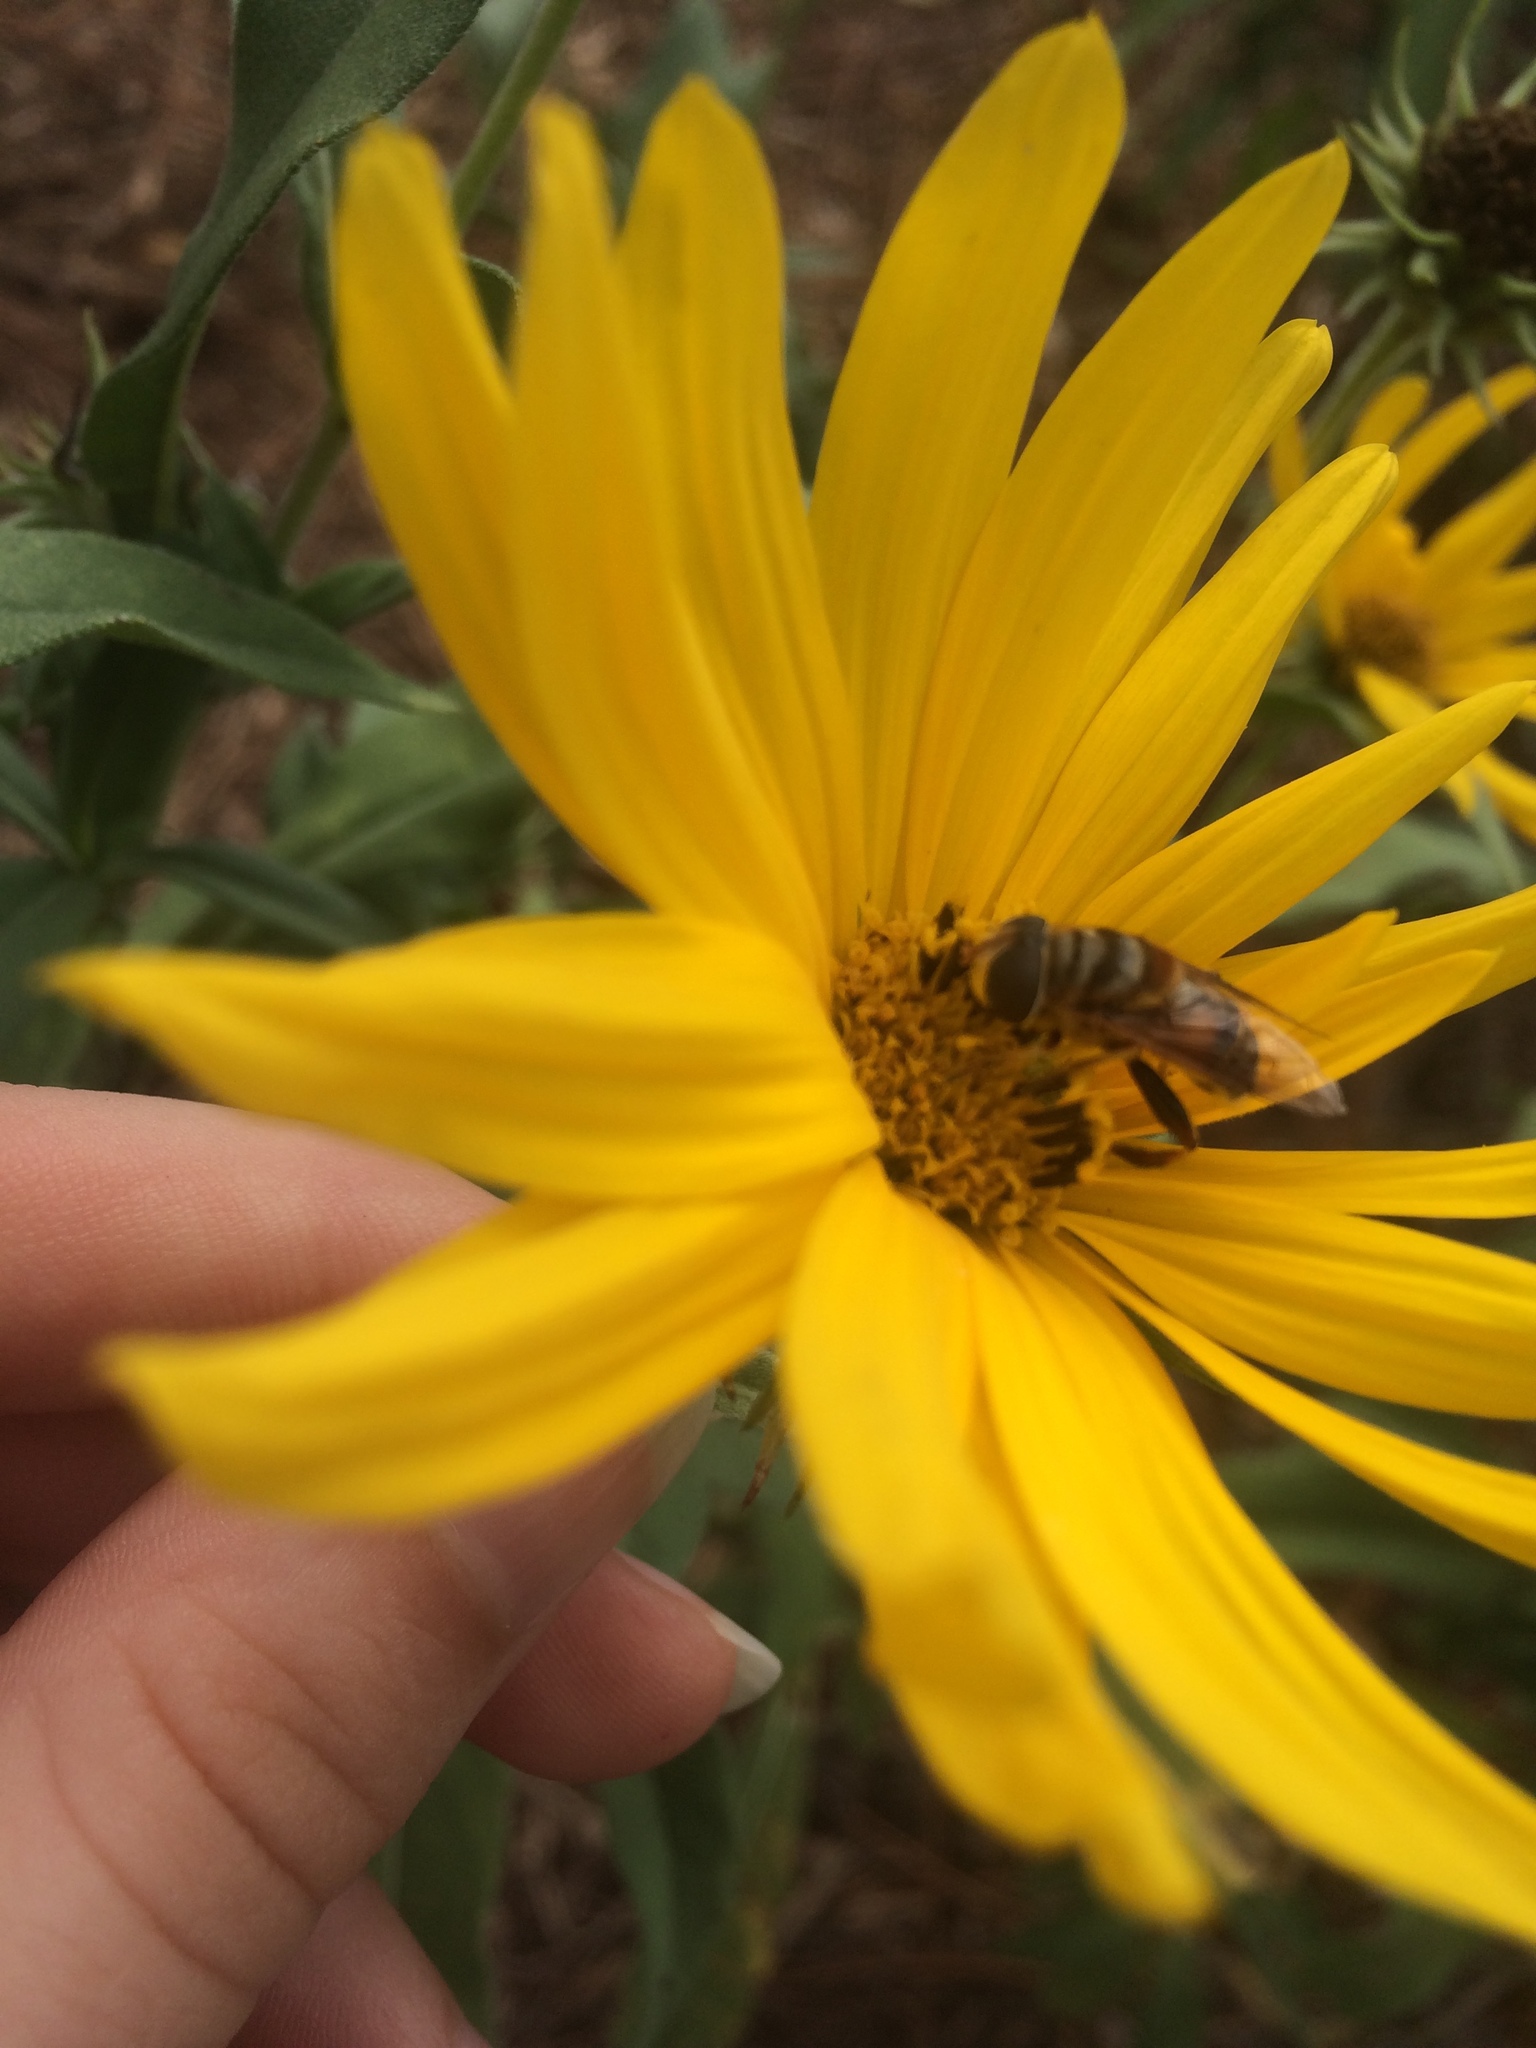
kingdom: Animalia
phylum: Arthropoda
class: Insecta
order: Diptera
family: Syrphidae
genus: Palpada
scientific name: Palpada vinetorum
